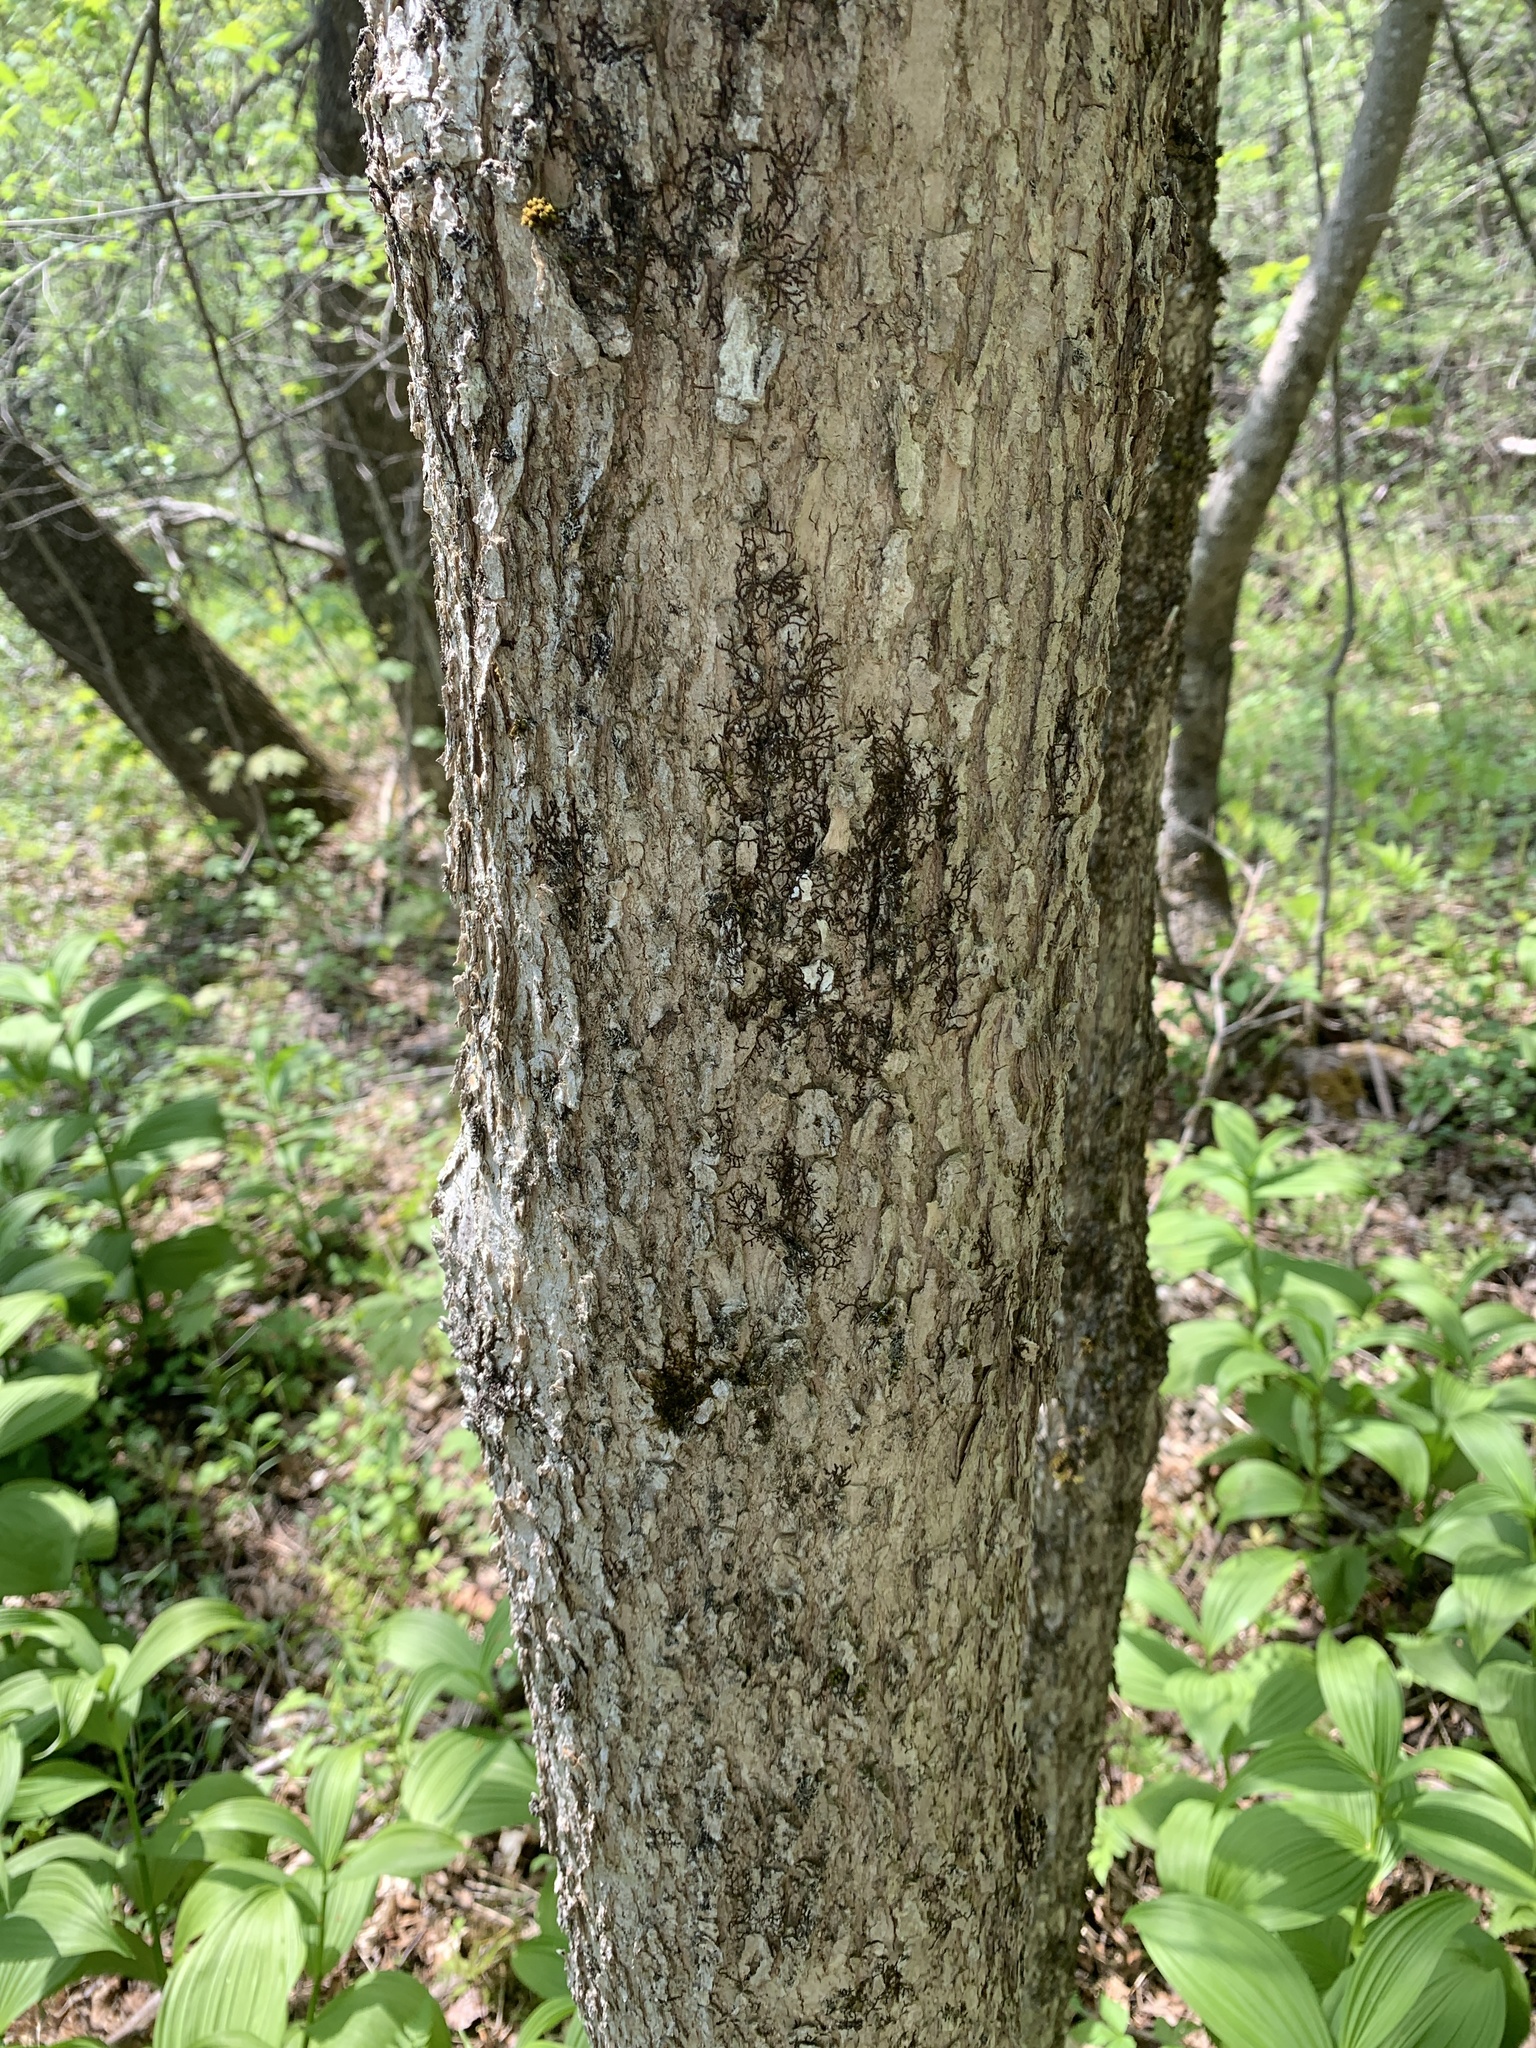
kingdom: Plantae
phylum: Tracheophyta
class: Magnoliopsida
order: Lamiales
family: Oleaceae
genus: Fraxinus
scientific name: Fraxinus nigra
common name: Black ash
